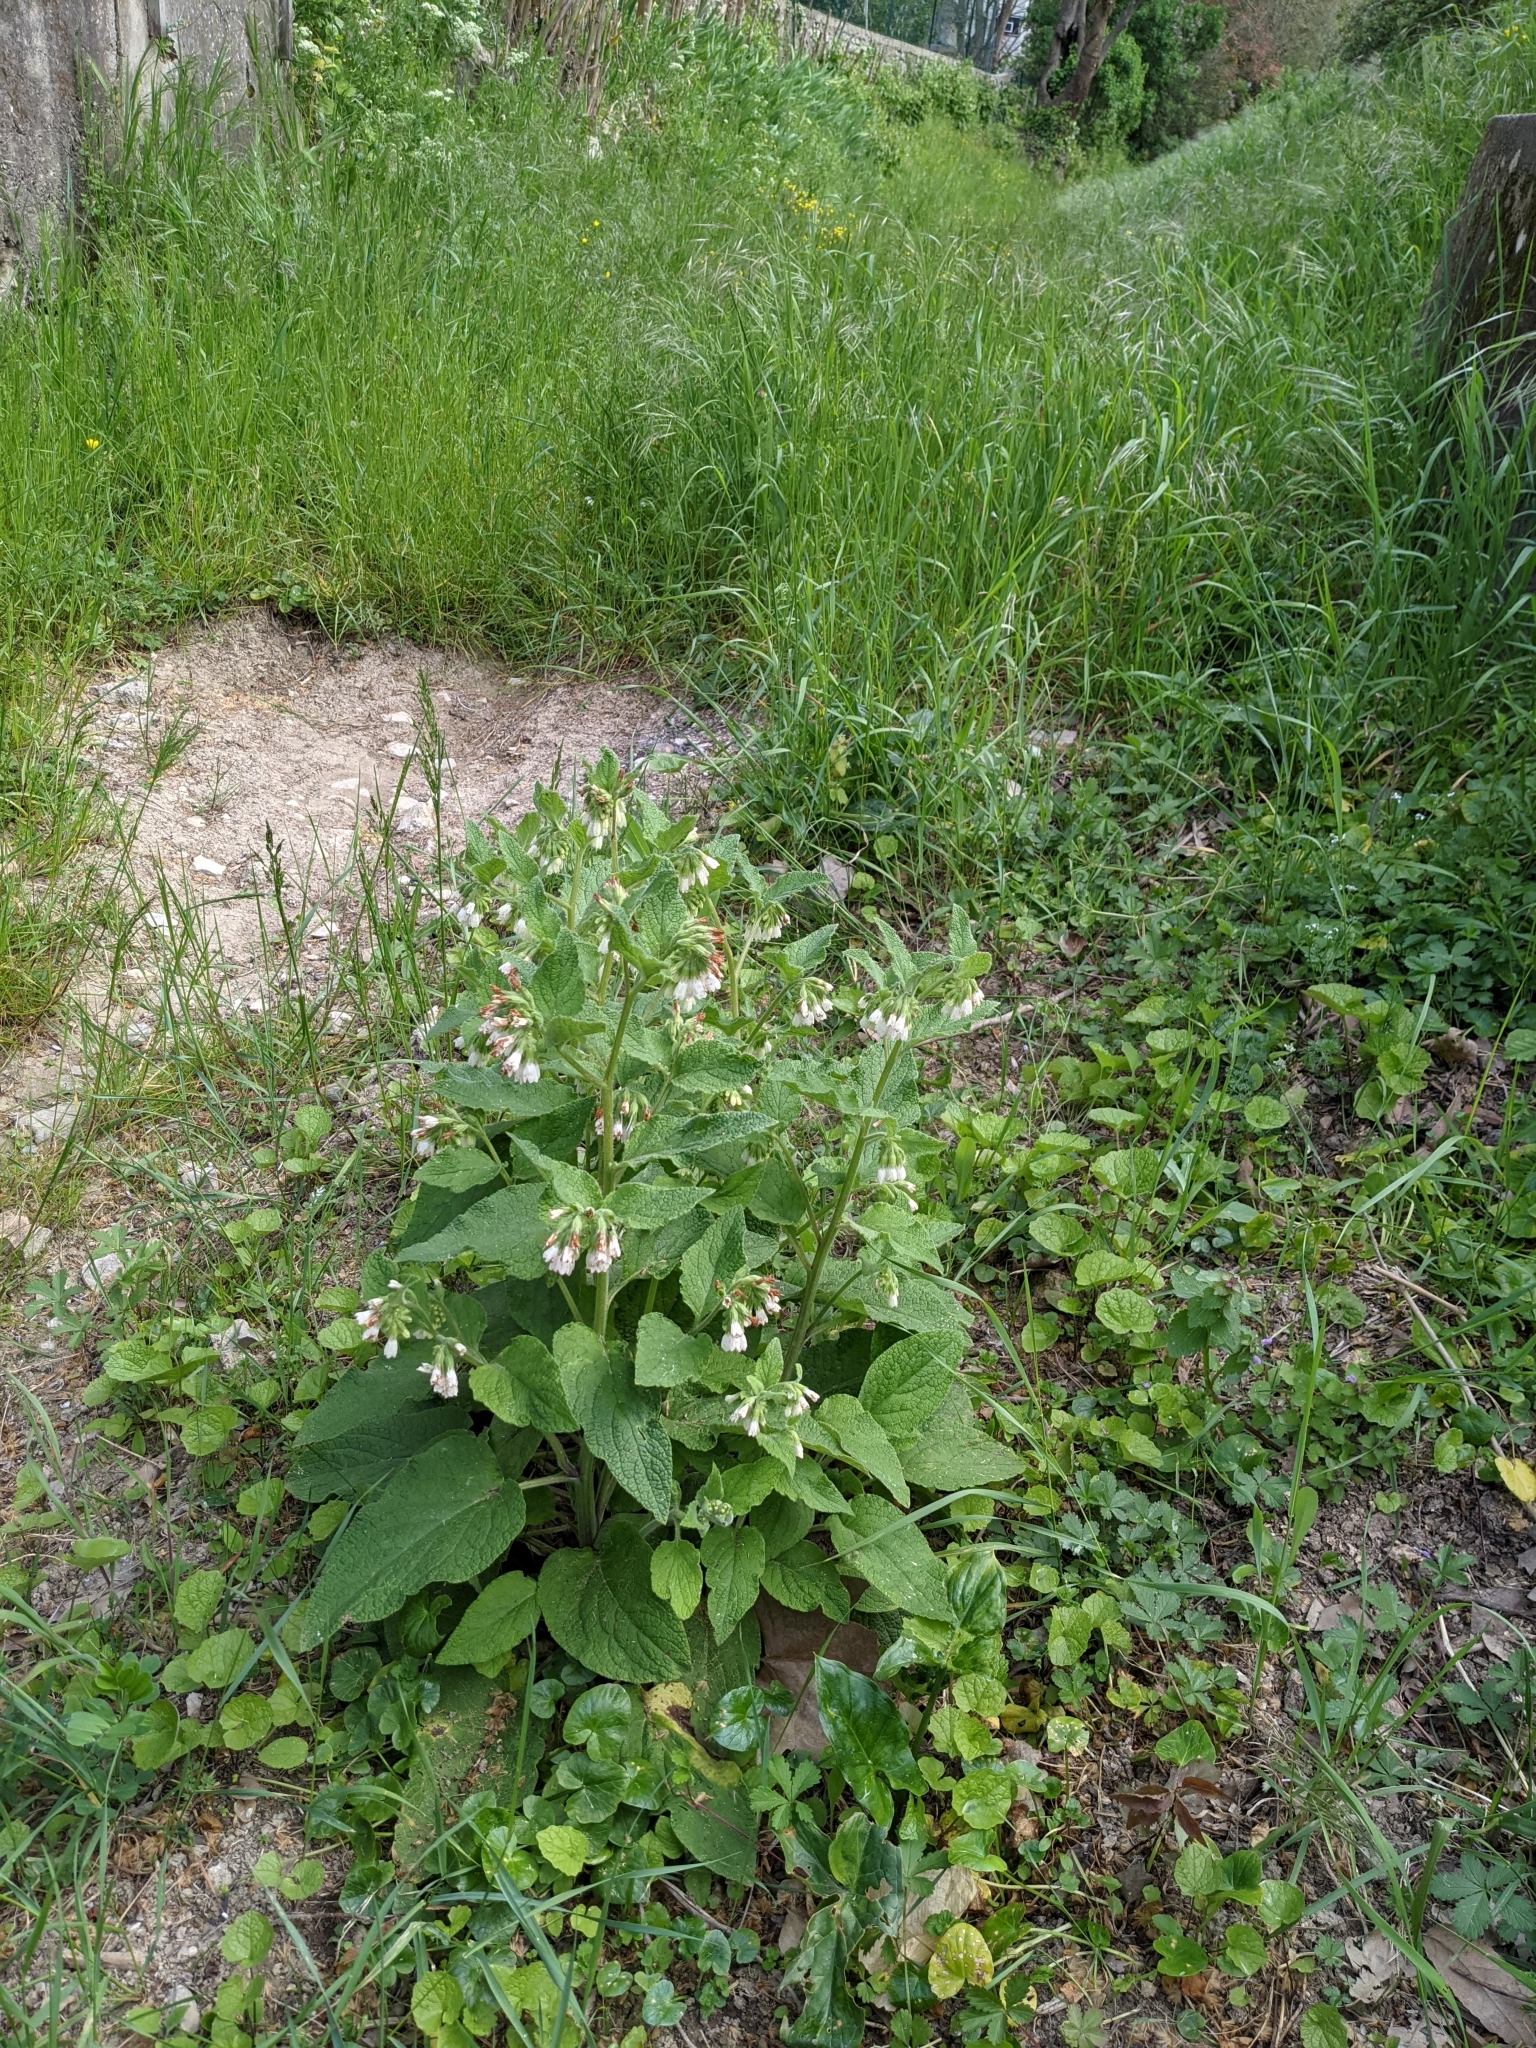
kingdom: Plantae
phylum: Tracheophyta
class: Magnoliopsida
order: Boraginales
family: Boraginaceae
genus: Symphytum
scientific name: Symphytum orientale
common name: White comfrey
